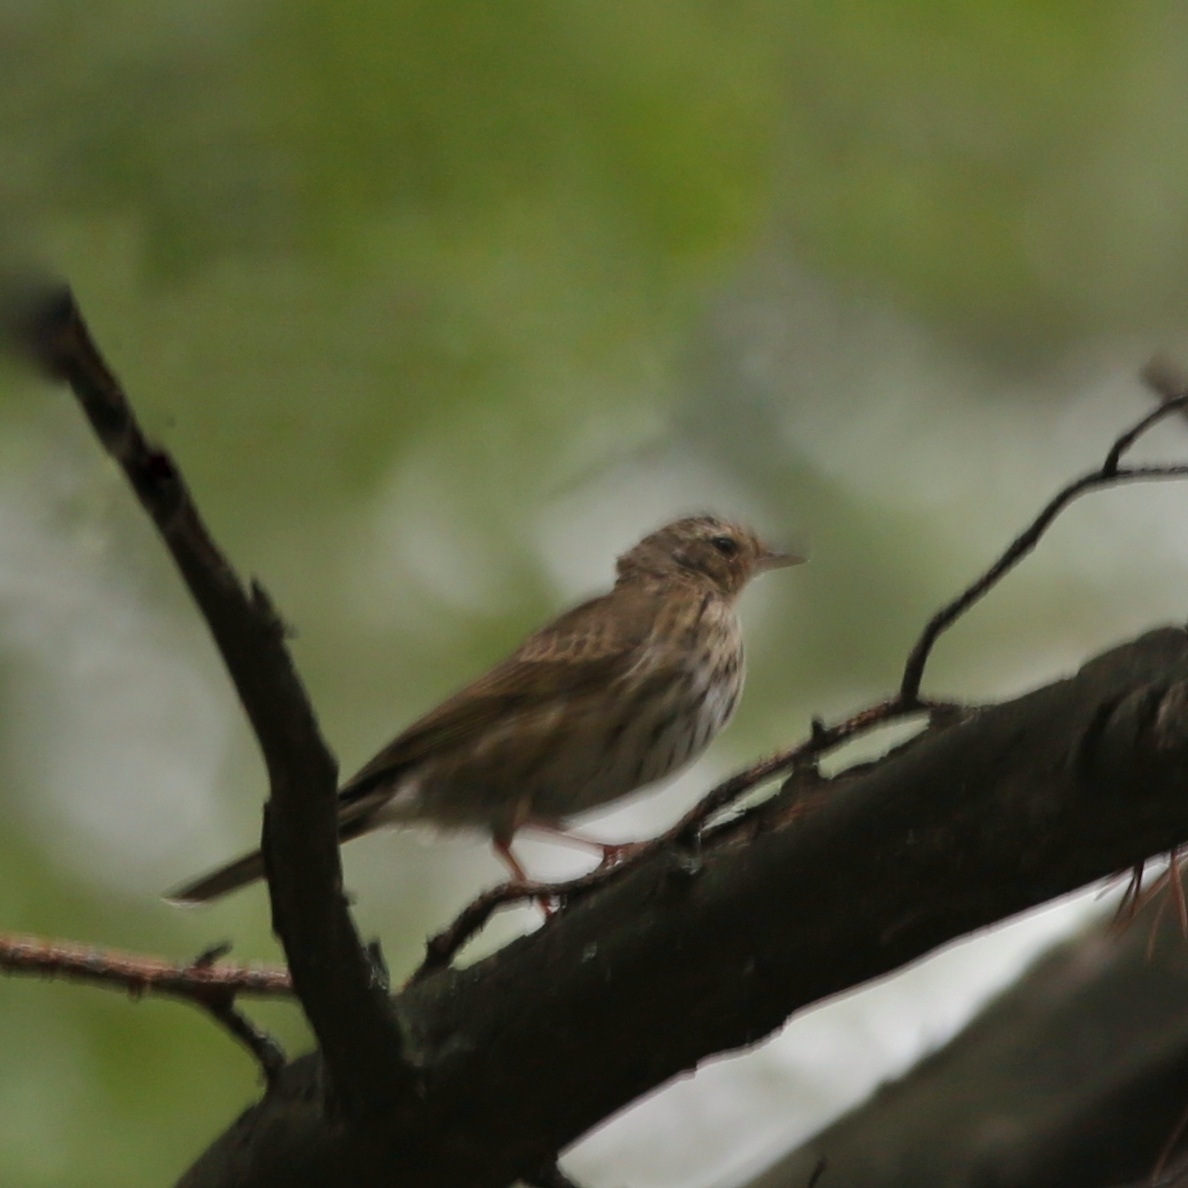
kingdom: Animalia
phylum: Chordata
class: Aves
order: Passeriformes
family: Motacillidae
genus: Anthus
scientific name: Anthus trivialis
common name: Tree pipit
